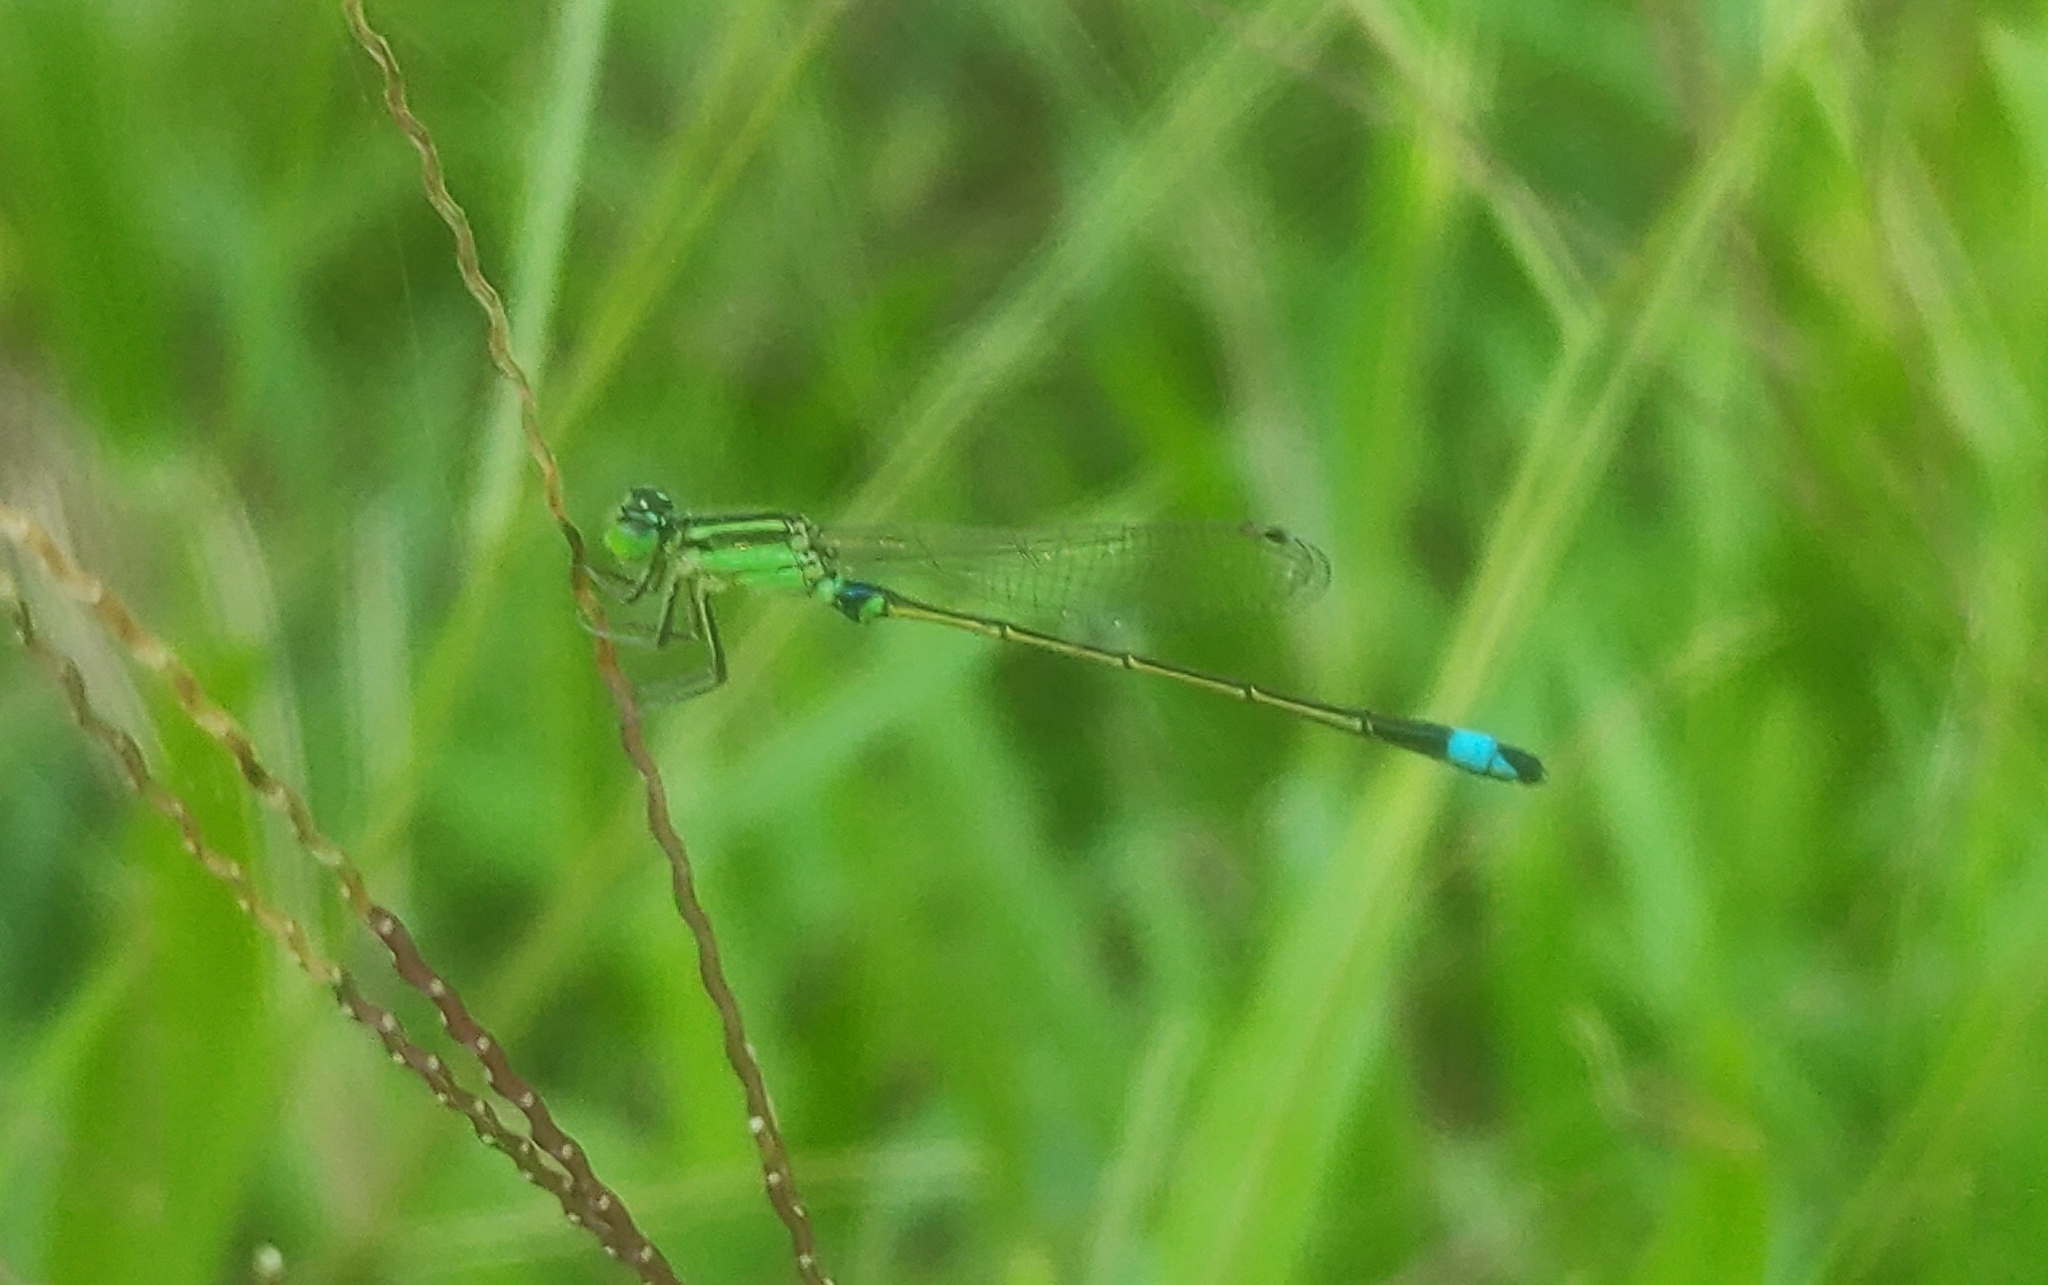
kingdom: Animalia
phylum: Arthropoda
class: Insecta
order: Odonata
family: Coenagrionidae
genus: Ischnura
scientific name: Ischnura senegalensis
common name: Tropical bluetail
